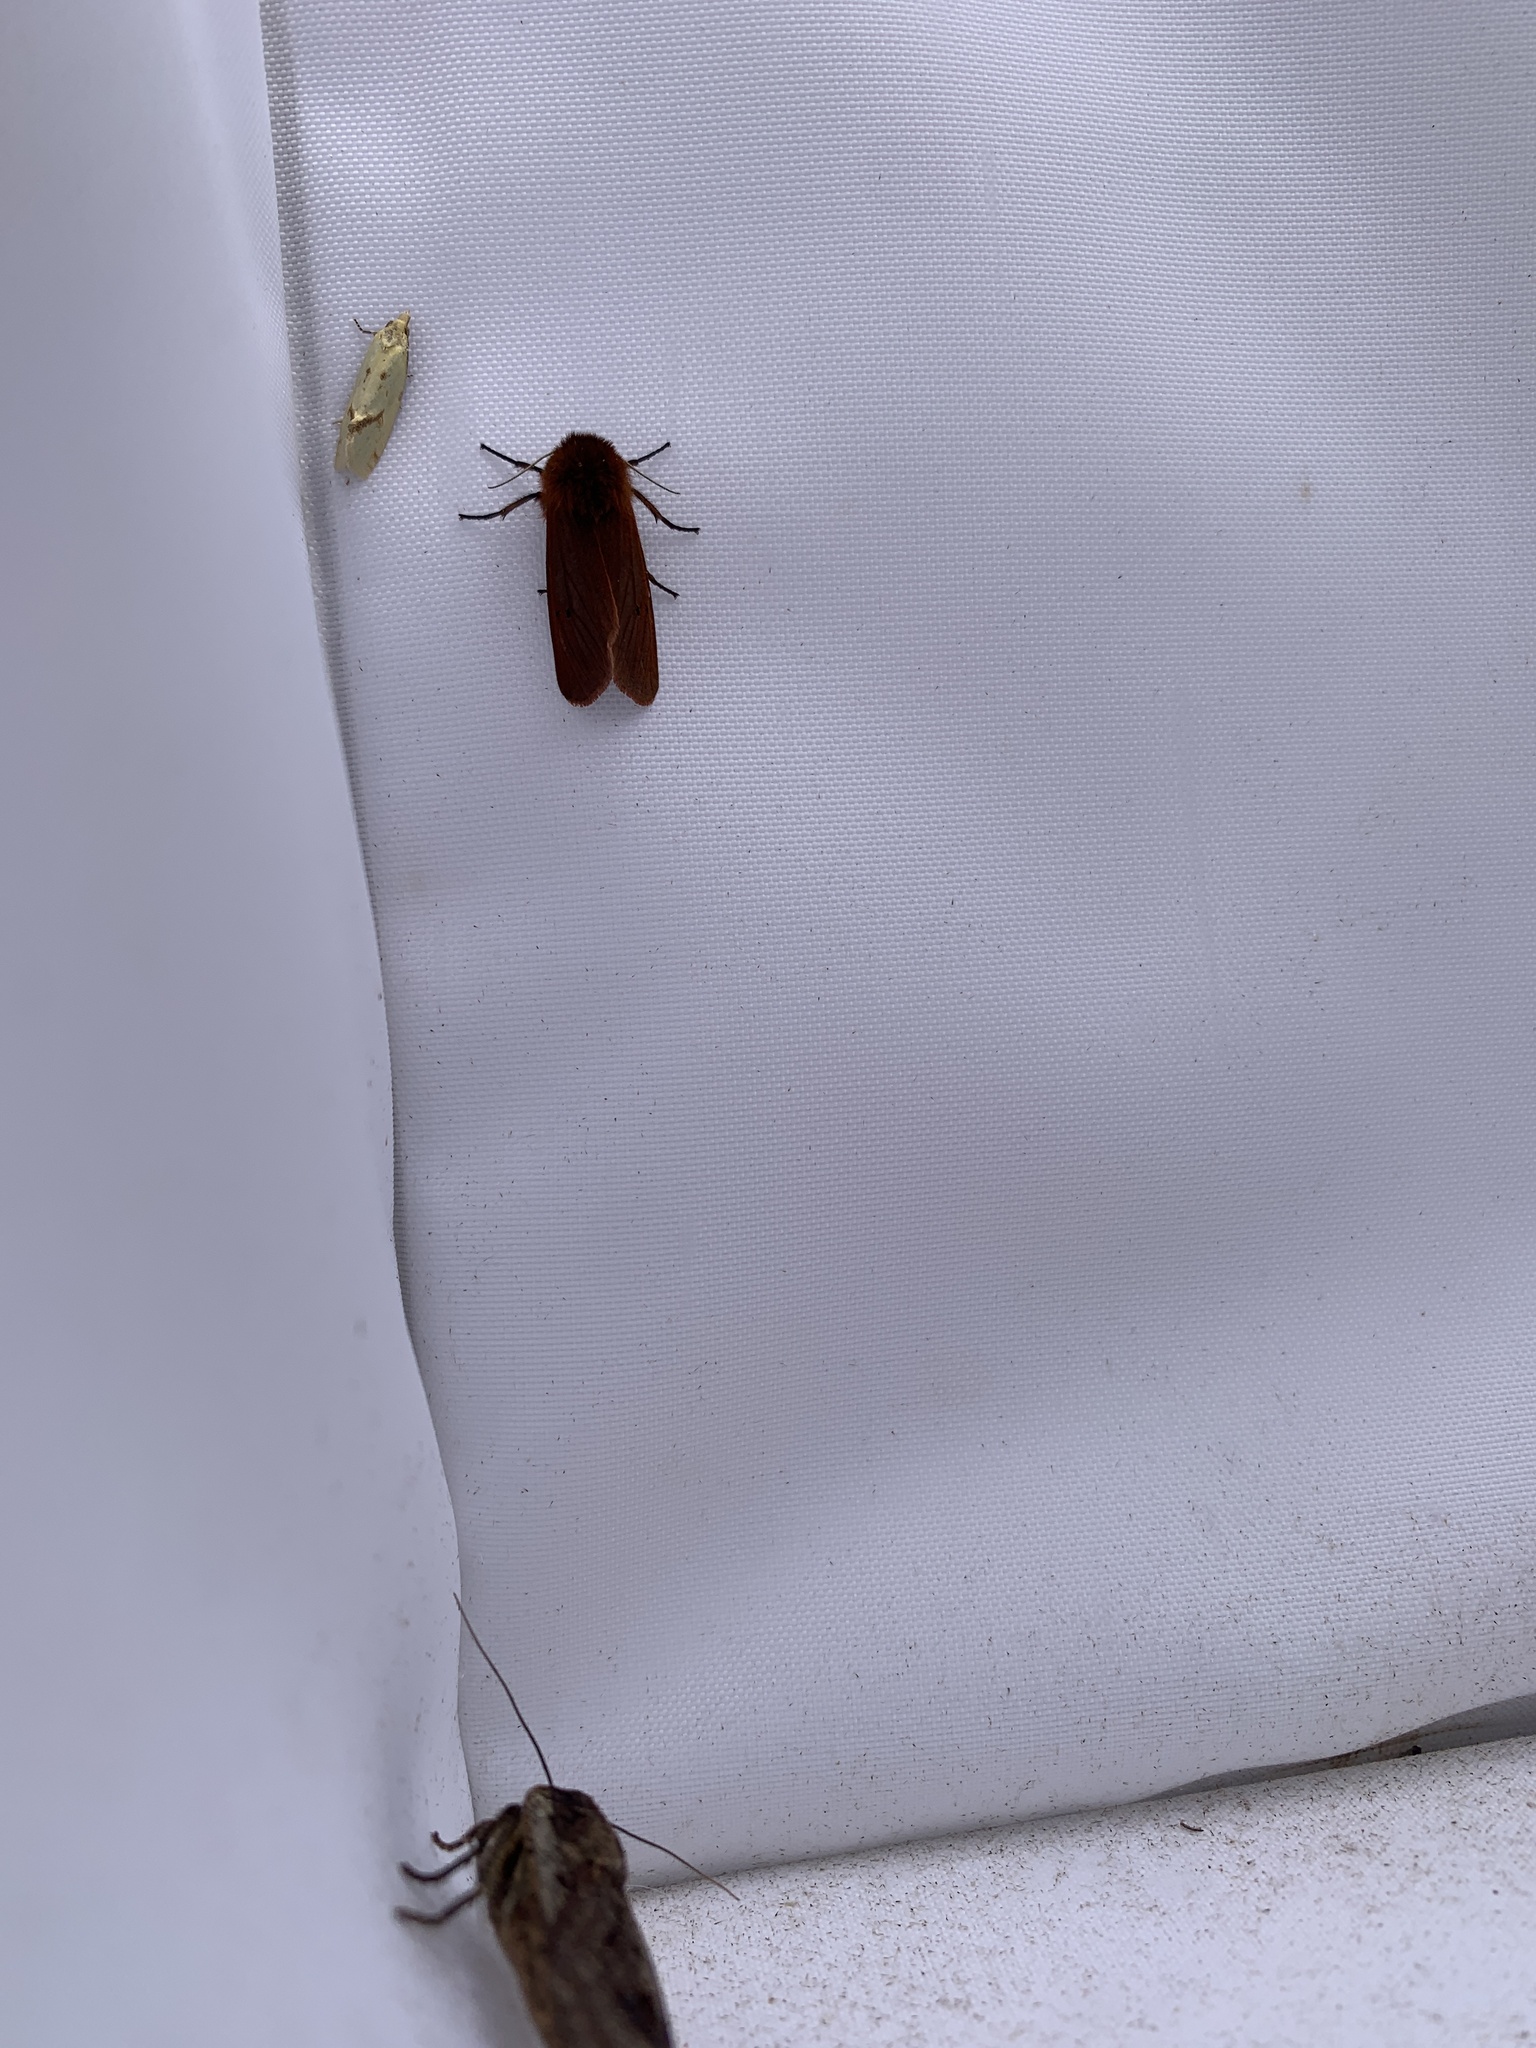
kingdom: Animalia
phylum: Arthropoda
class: Insecta
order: Lepidoptera
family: Erebidae
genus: Phragmatobia
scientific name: Phragmatobia fuliginosa
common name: Ruby tiger
